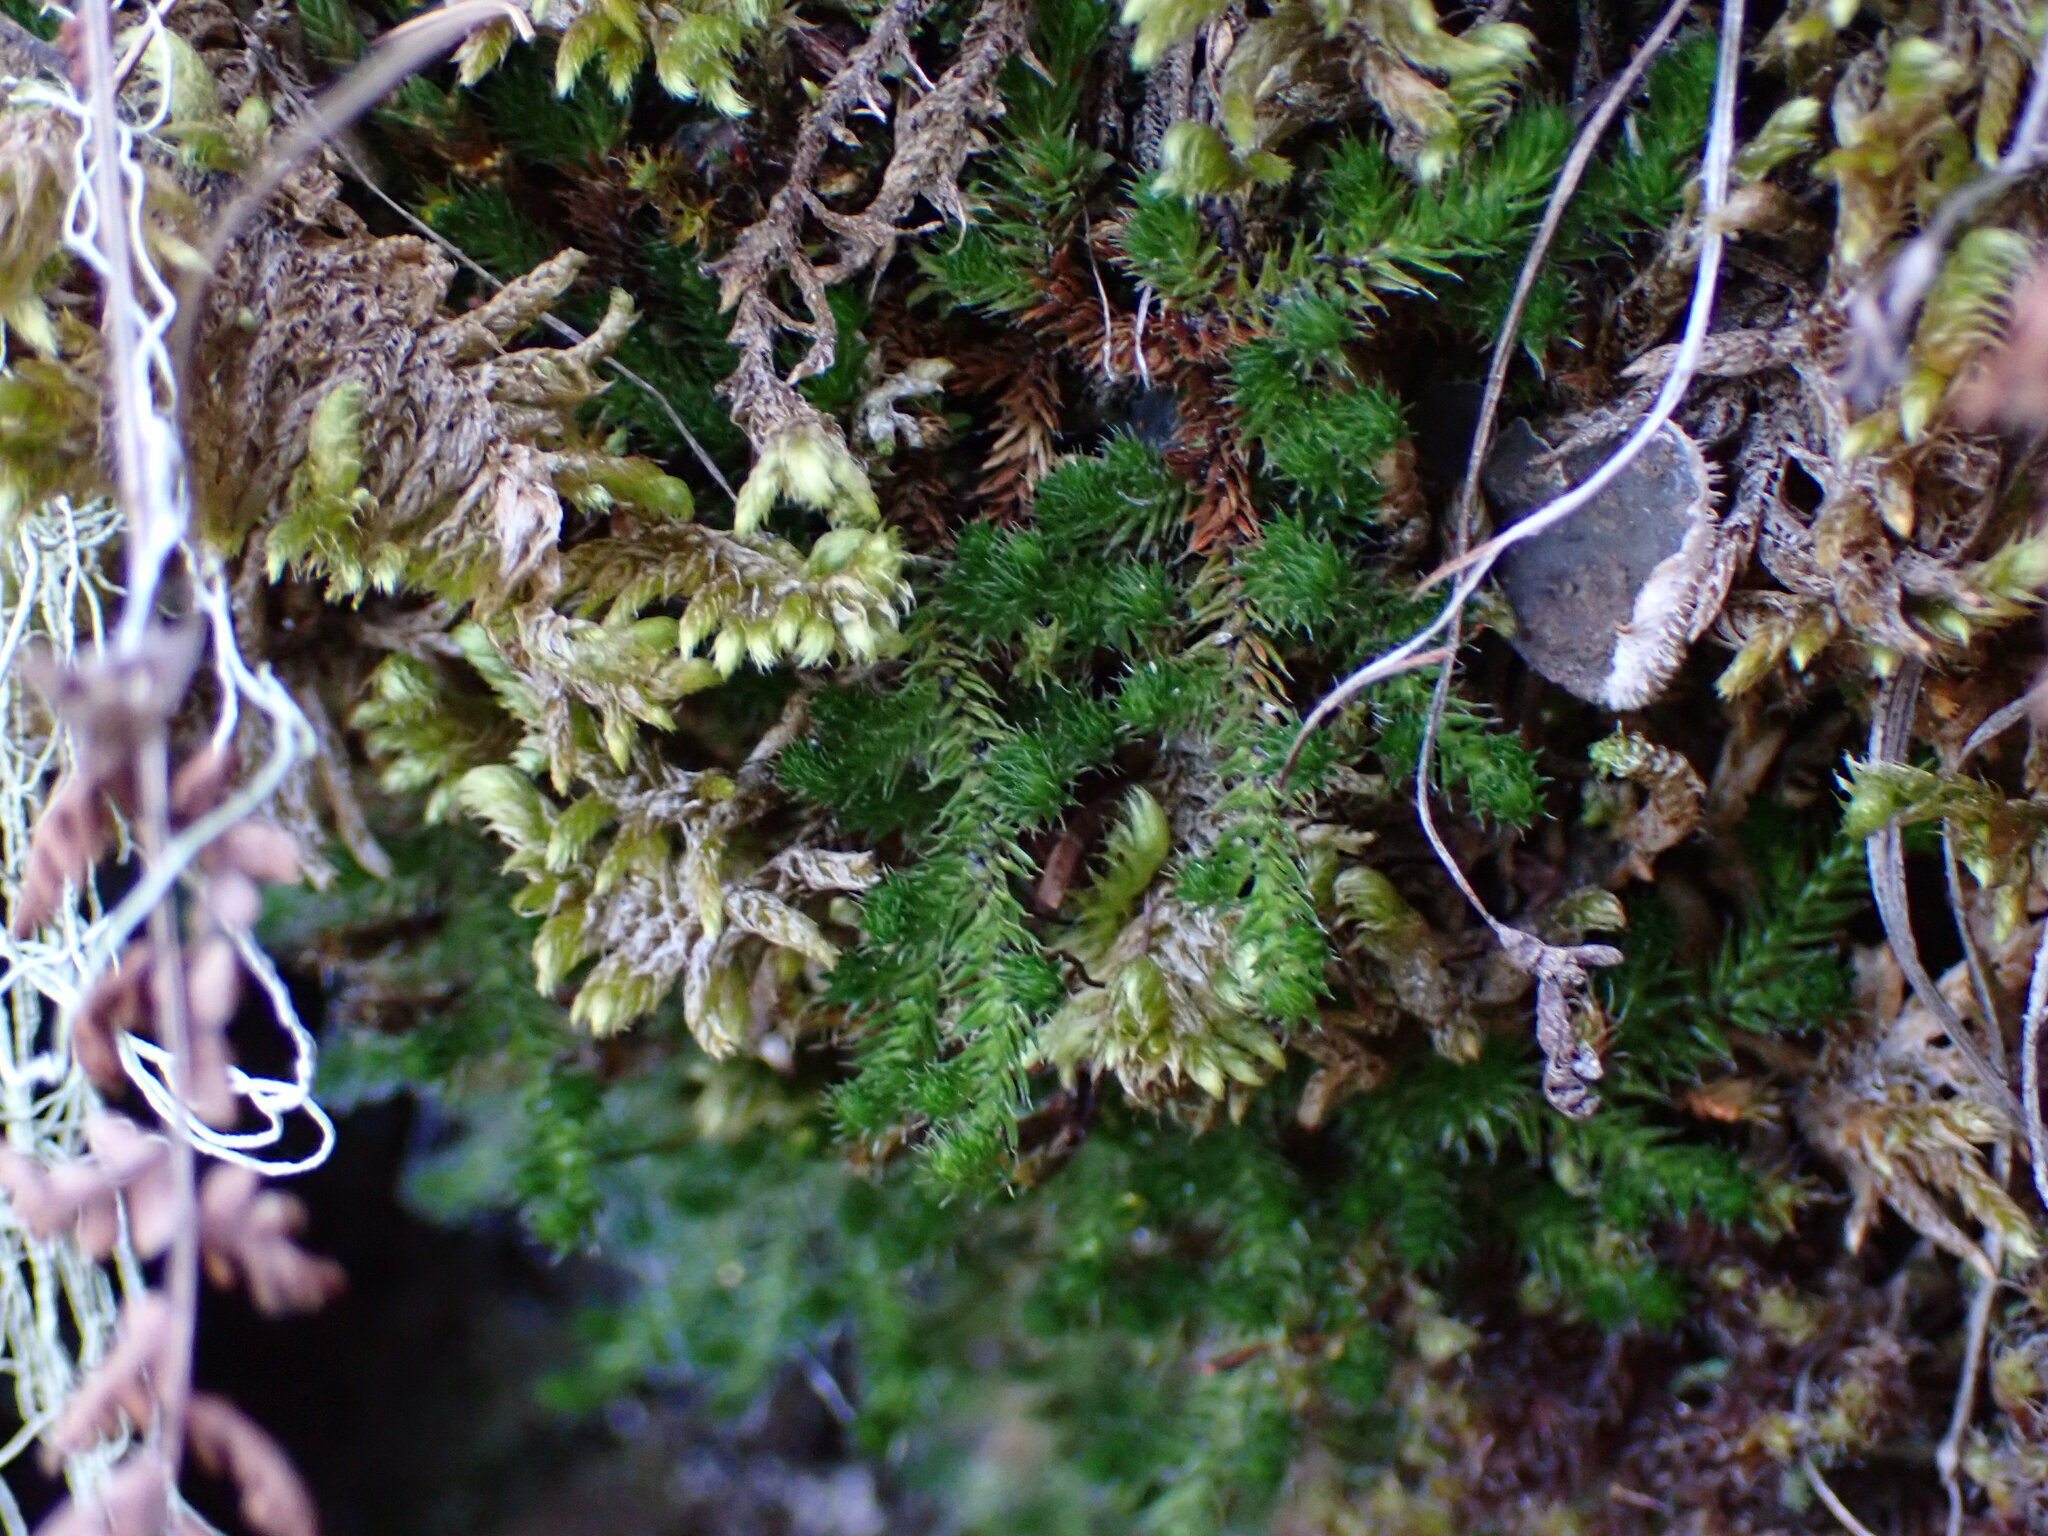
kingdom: Plantae
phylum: Tracheophyta
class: Lycopodiopsida
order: Selaginellales
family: Selaginellaceae
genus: Selaginella
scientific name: Selaginella wallacei
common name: Wallace's selaginella
